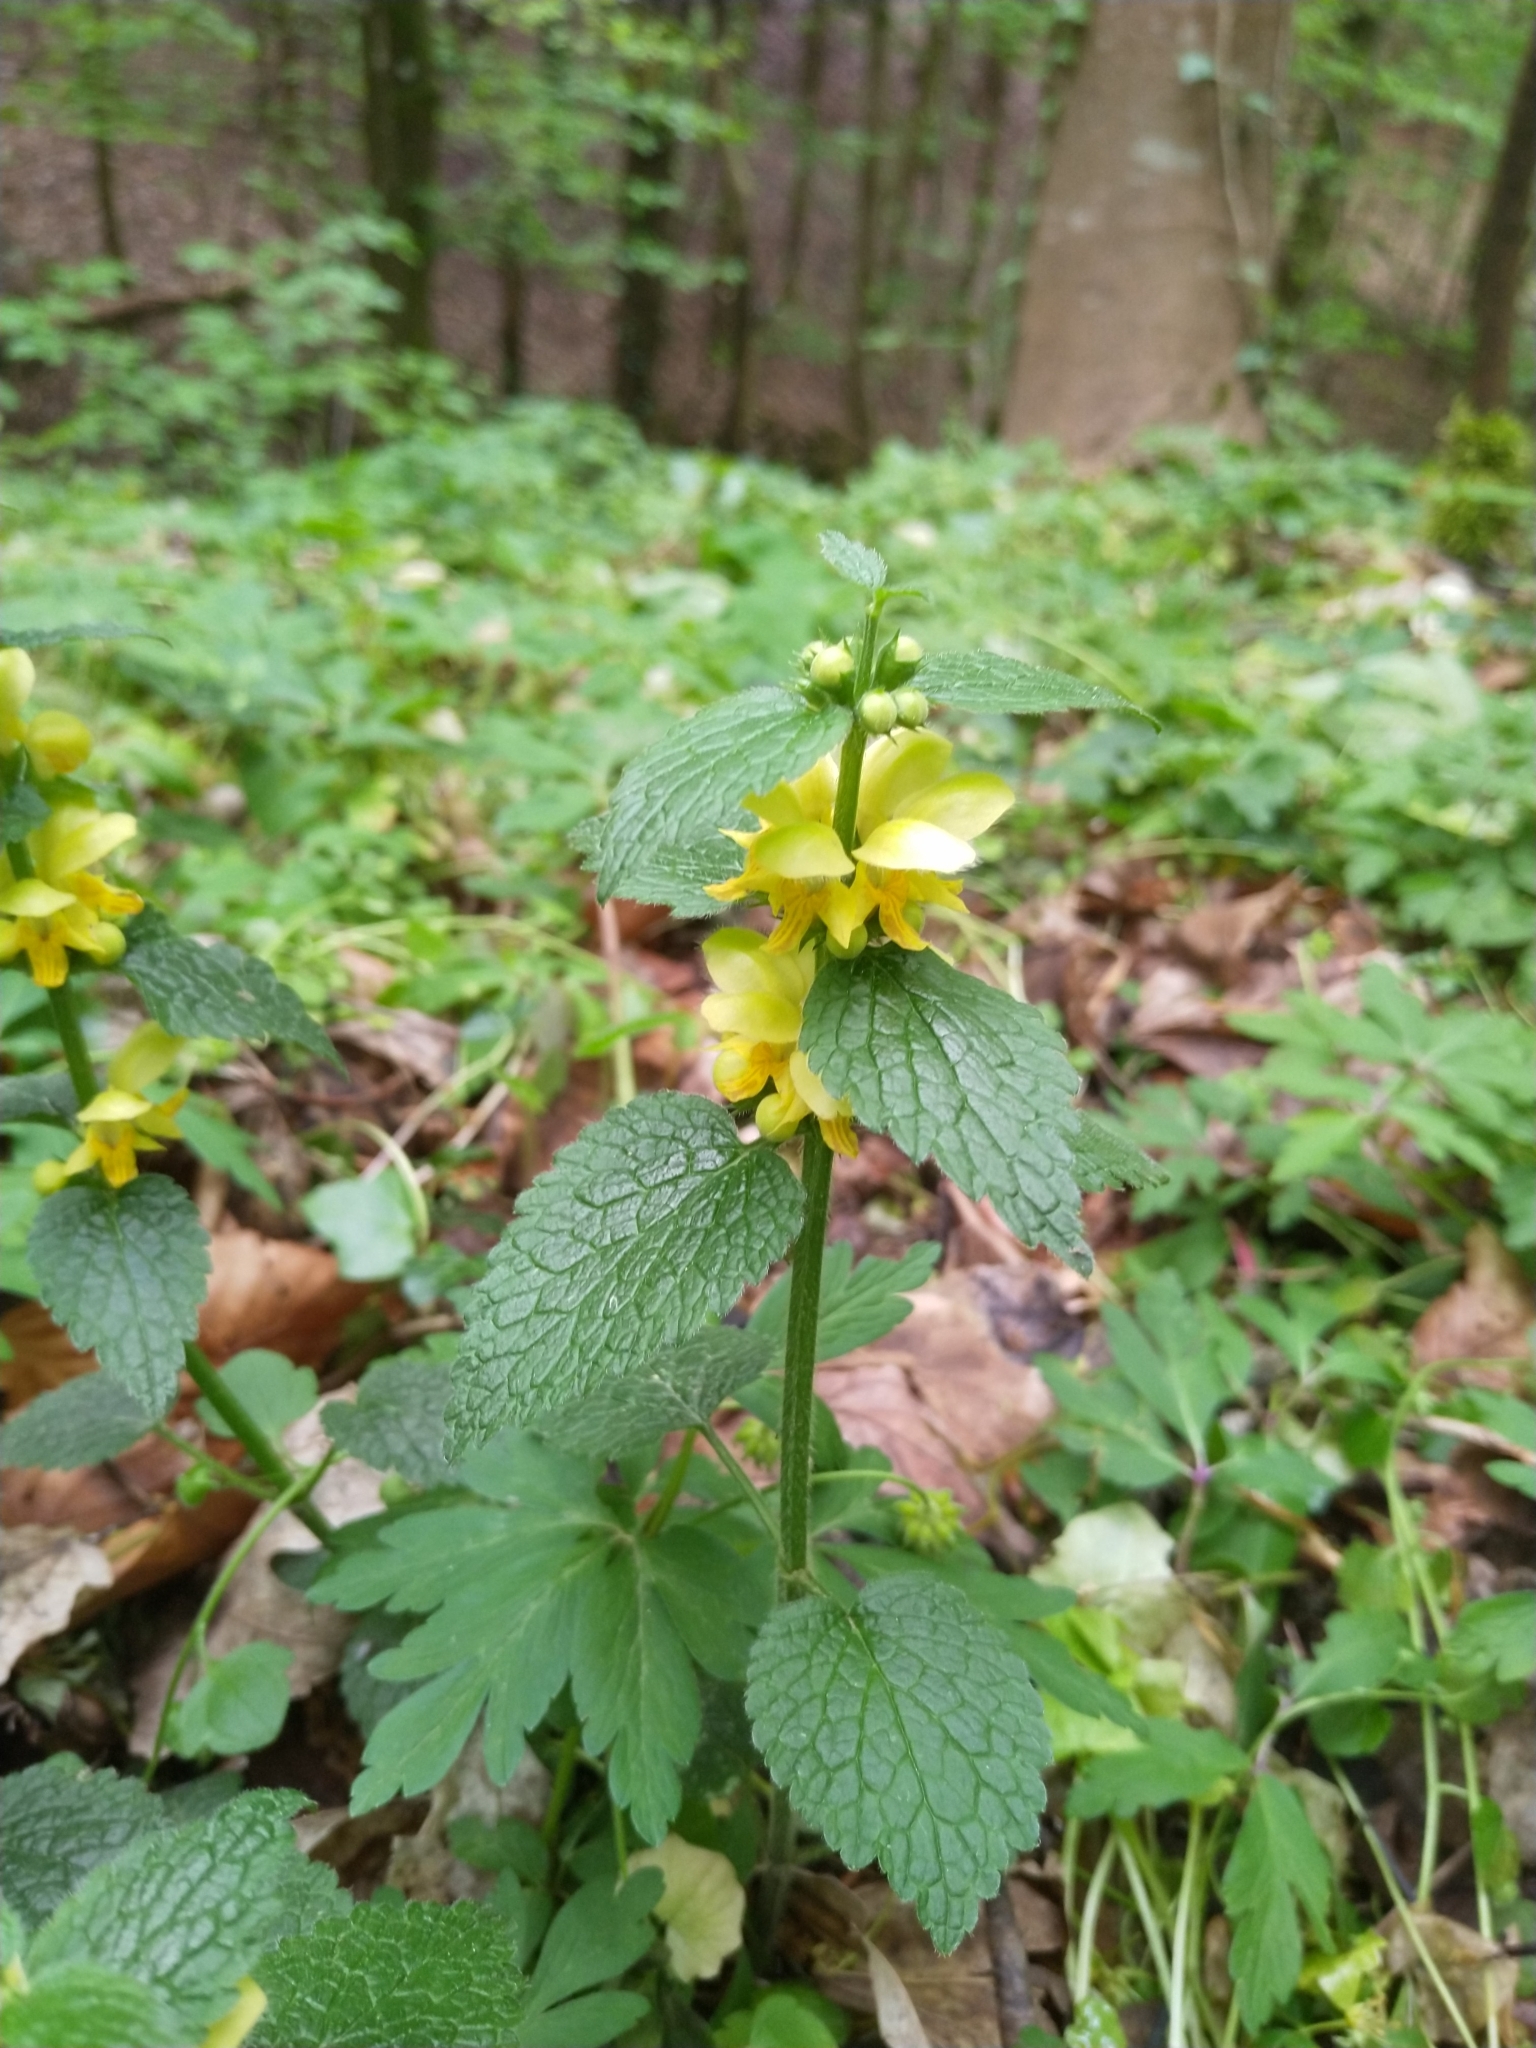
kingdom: Plantae
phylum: Tracheophyta
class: Magnoliopsida
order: Lamiales
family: Lamiaceae
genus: Lamium
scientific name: Lamium galeobdolon
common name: Yellow archangel
